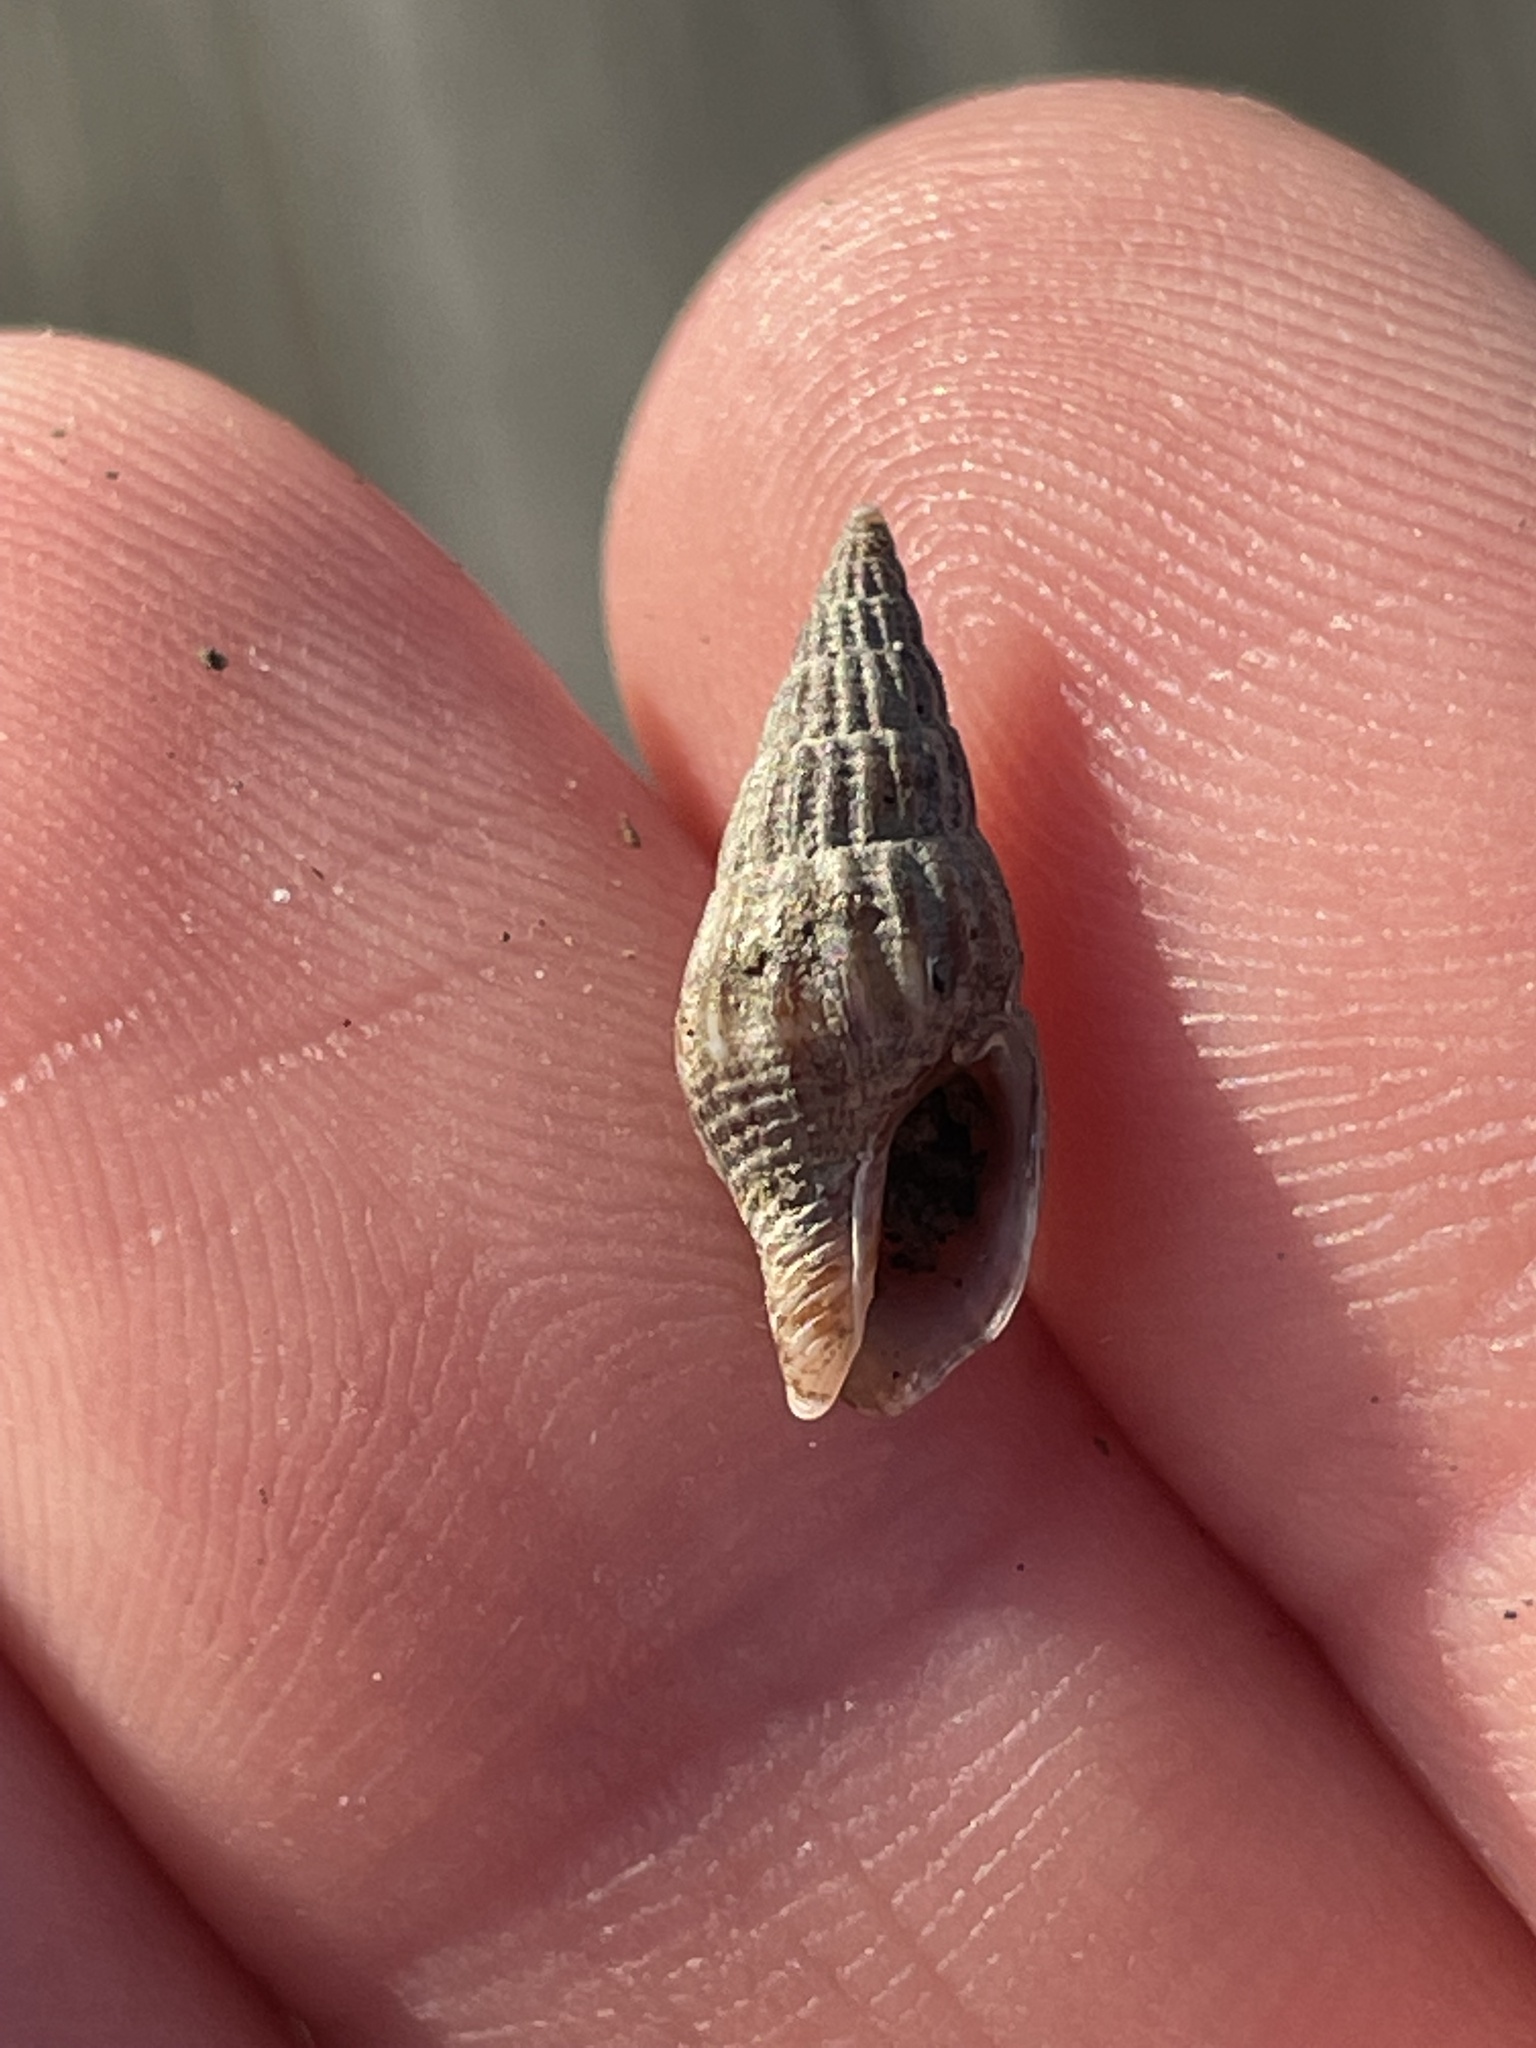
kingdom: Animalia
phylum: Mollusca
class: Gastropoda
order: Neogastropoda
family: Columbellidae
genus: Costoanachis
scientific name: Costoanachis translirata
